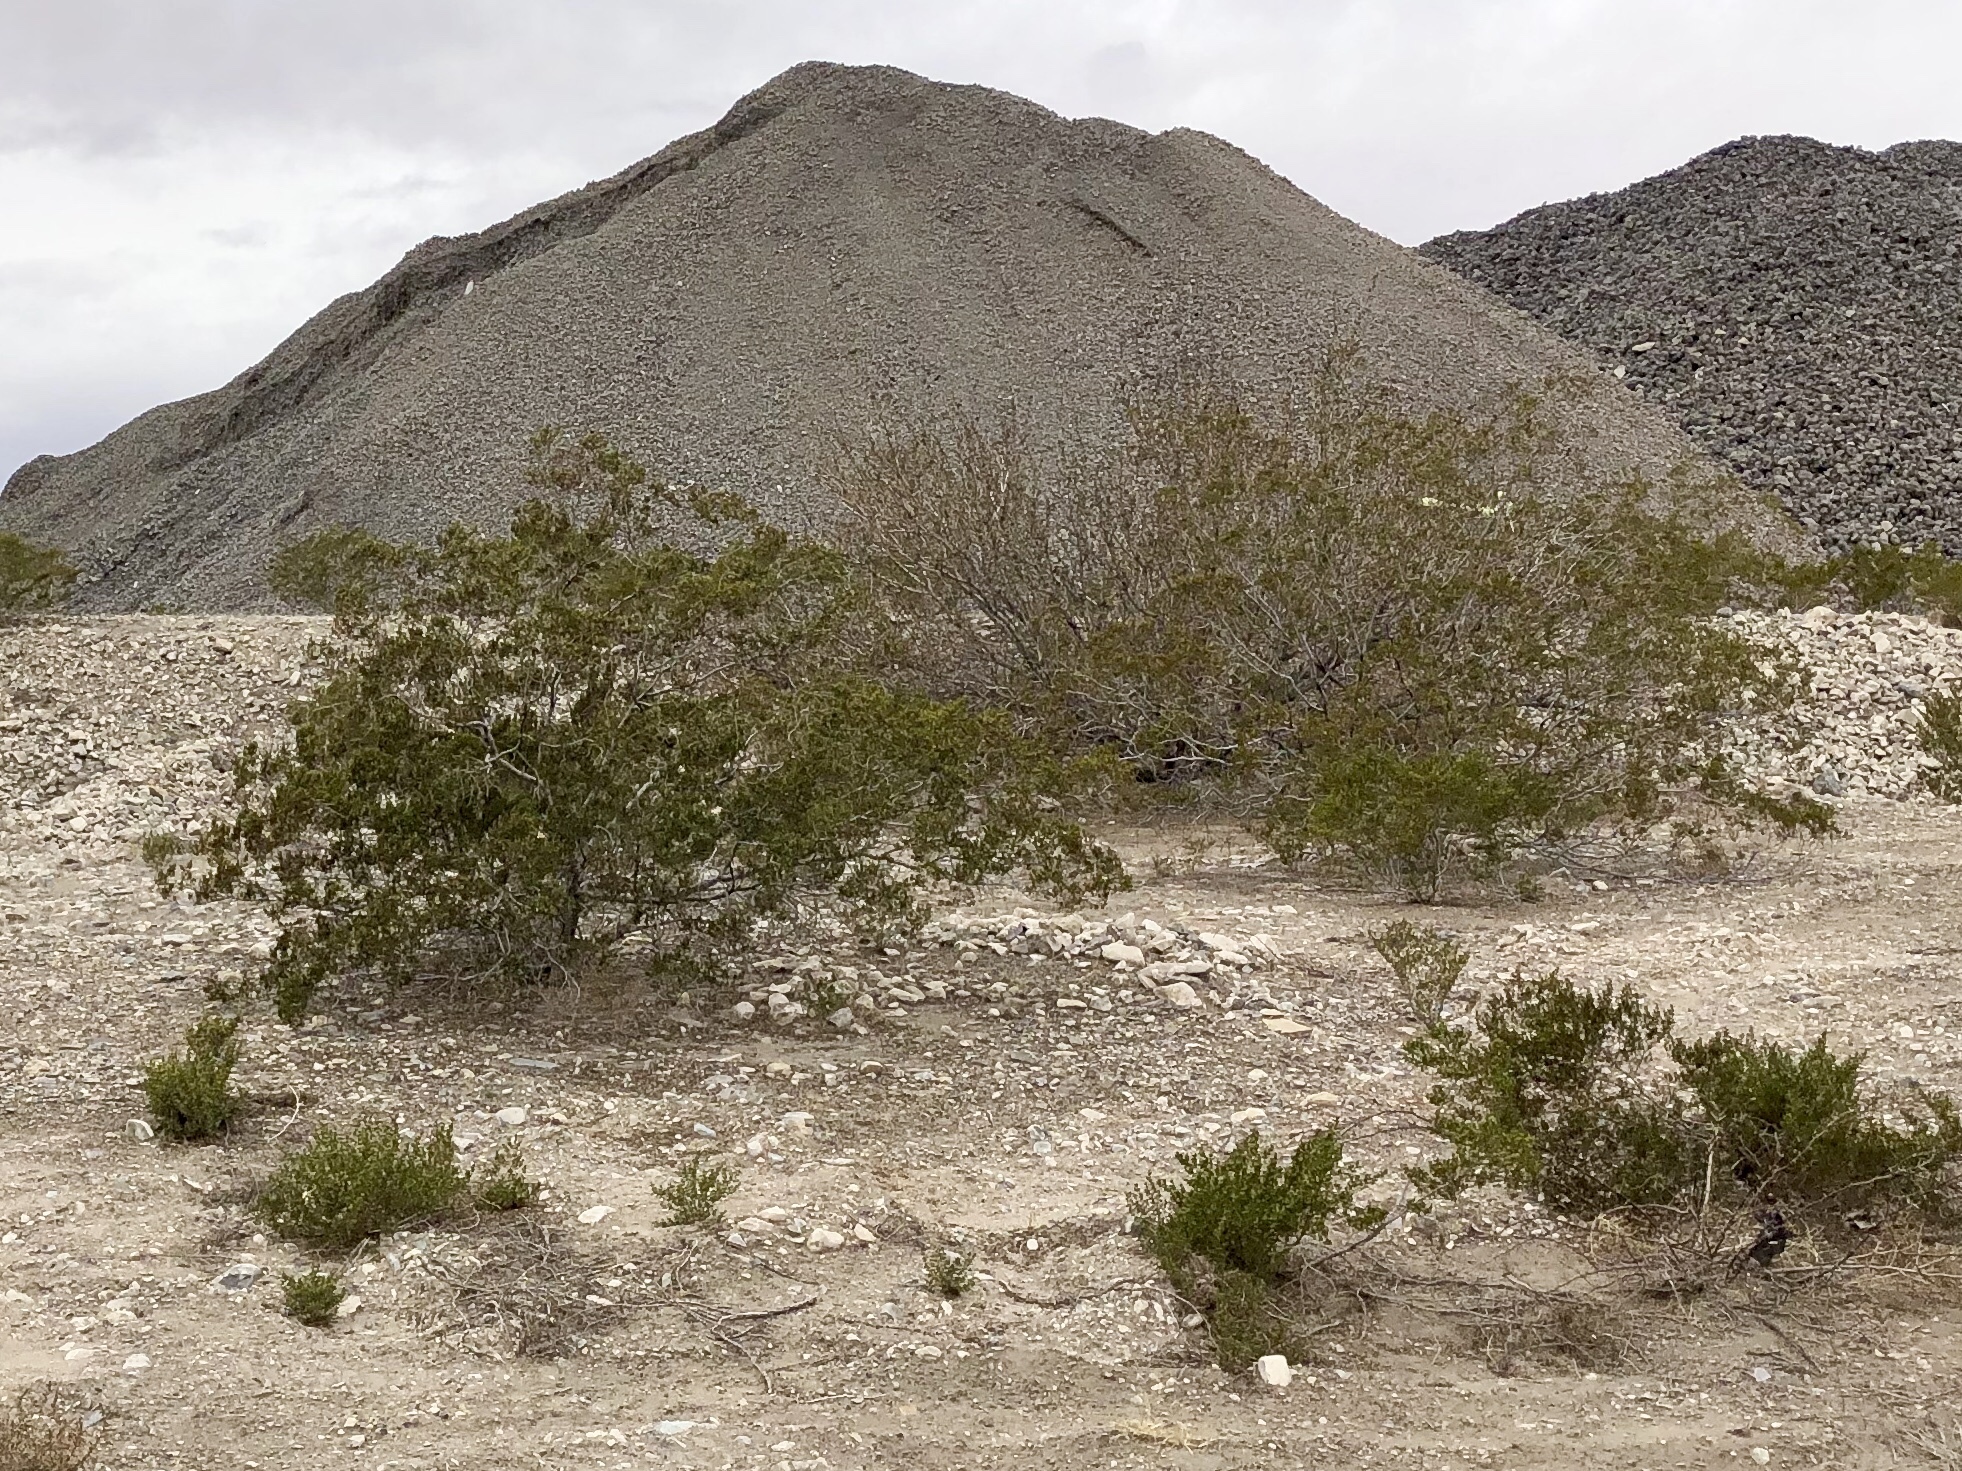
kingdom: Plantae
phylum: Tracheophyta
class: Magnoliopsida
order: Zygophyllales
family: Zygophyllaceae
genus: Larrea
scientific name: Larrea tridentata
